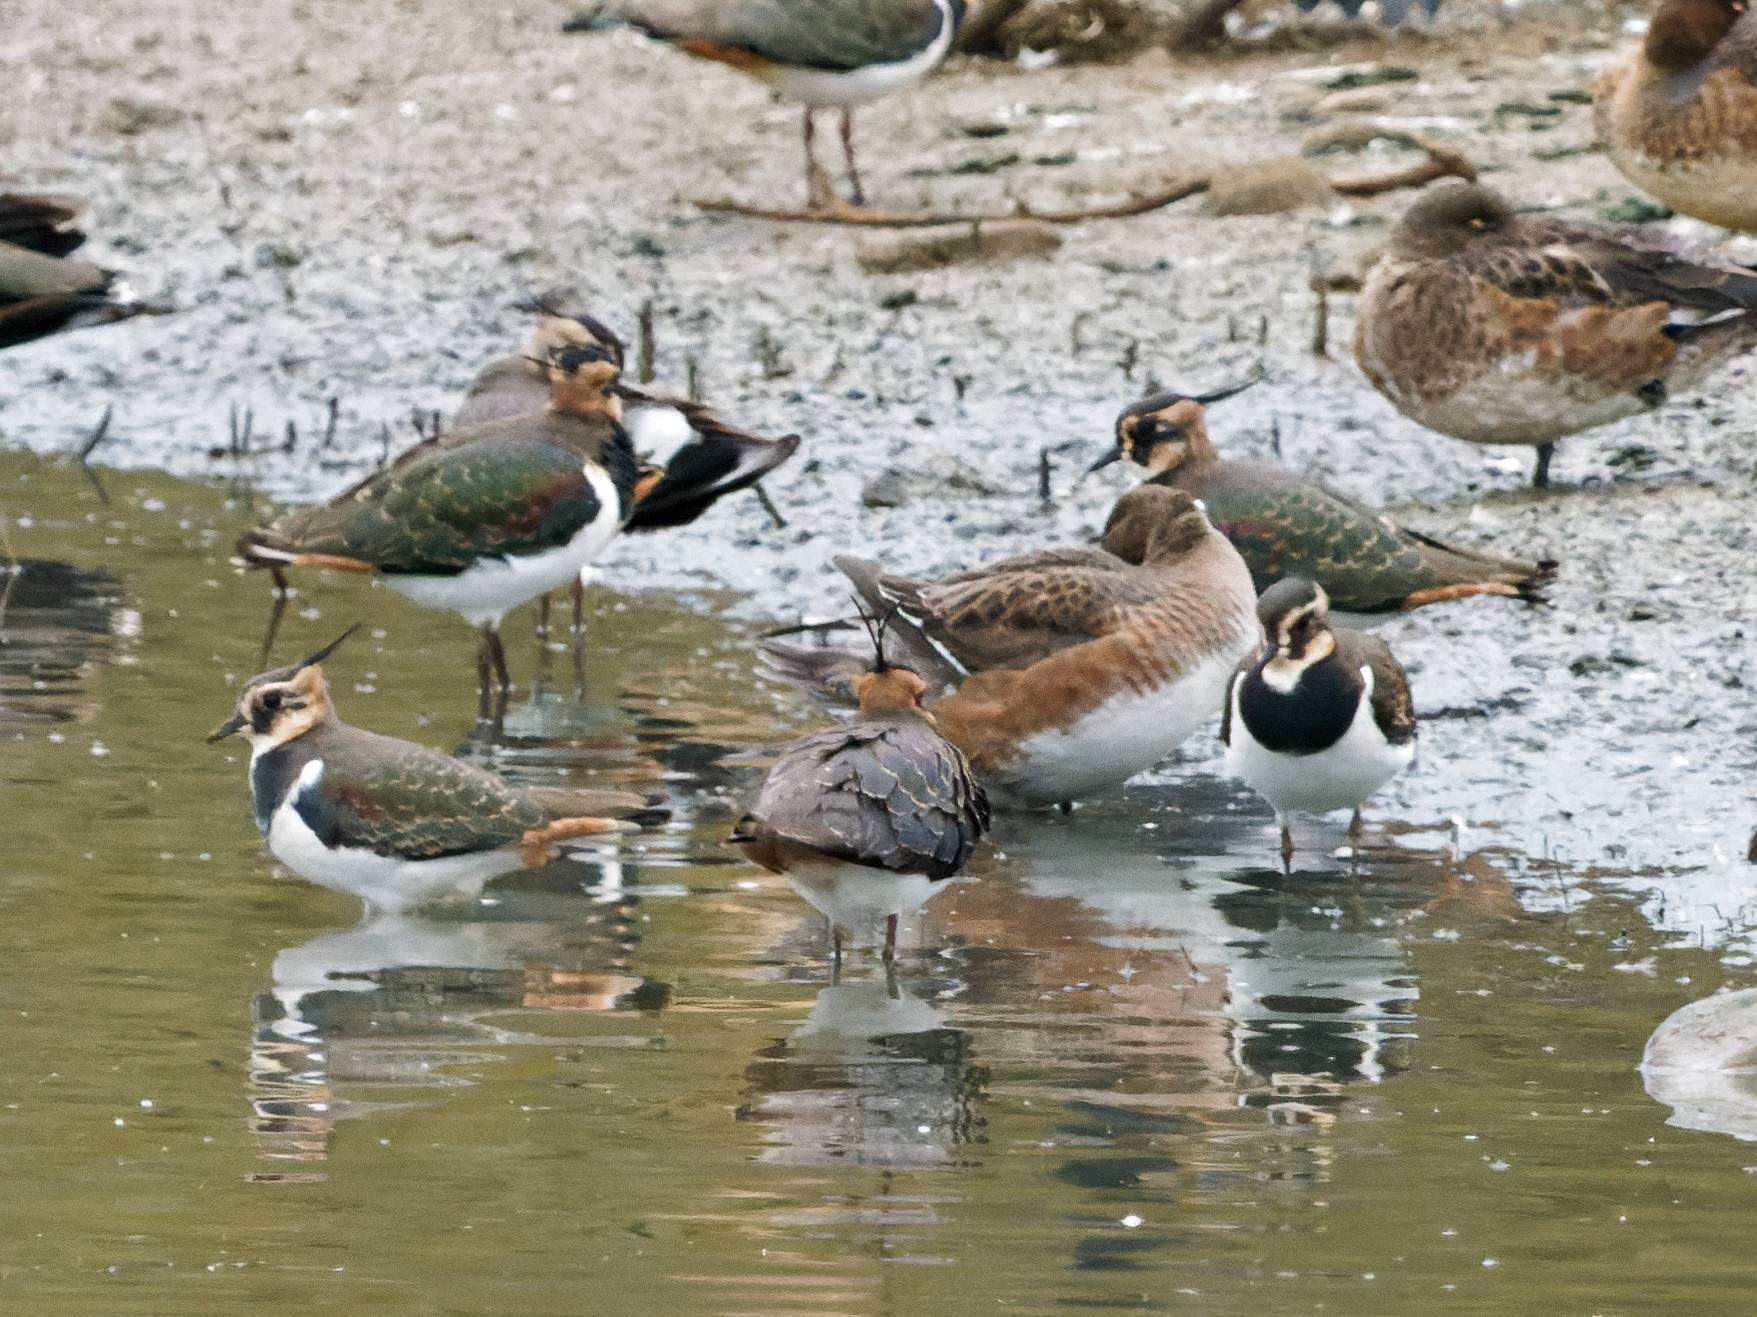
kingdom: Animalia
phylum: Chordata
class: Aves
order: Charadriiformes
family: Charadriidae
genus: Vanellus
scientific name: Vanellus vanellus
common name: Northern lapwing
